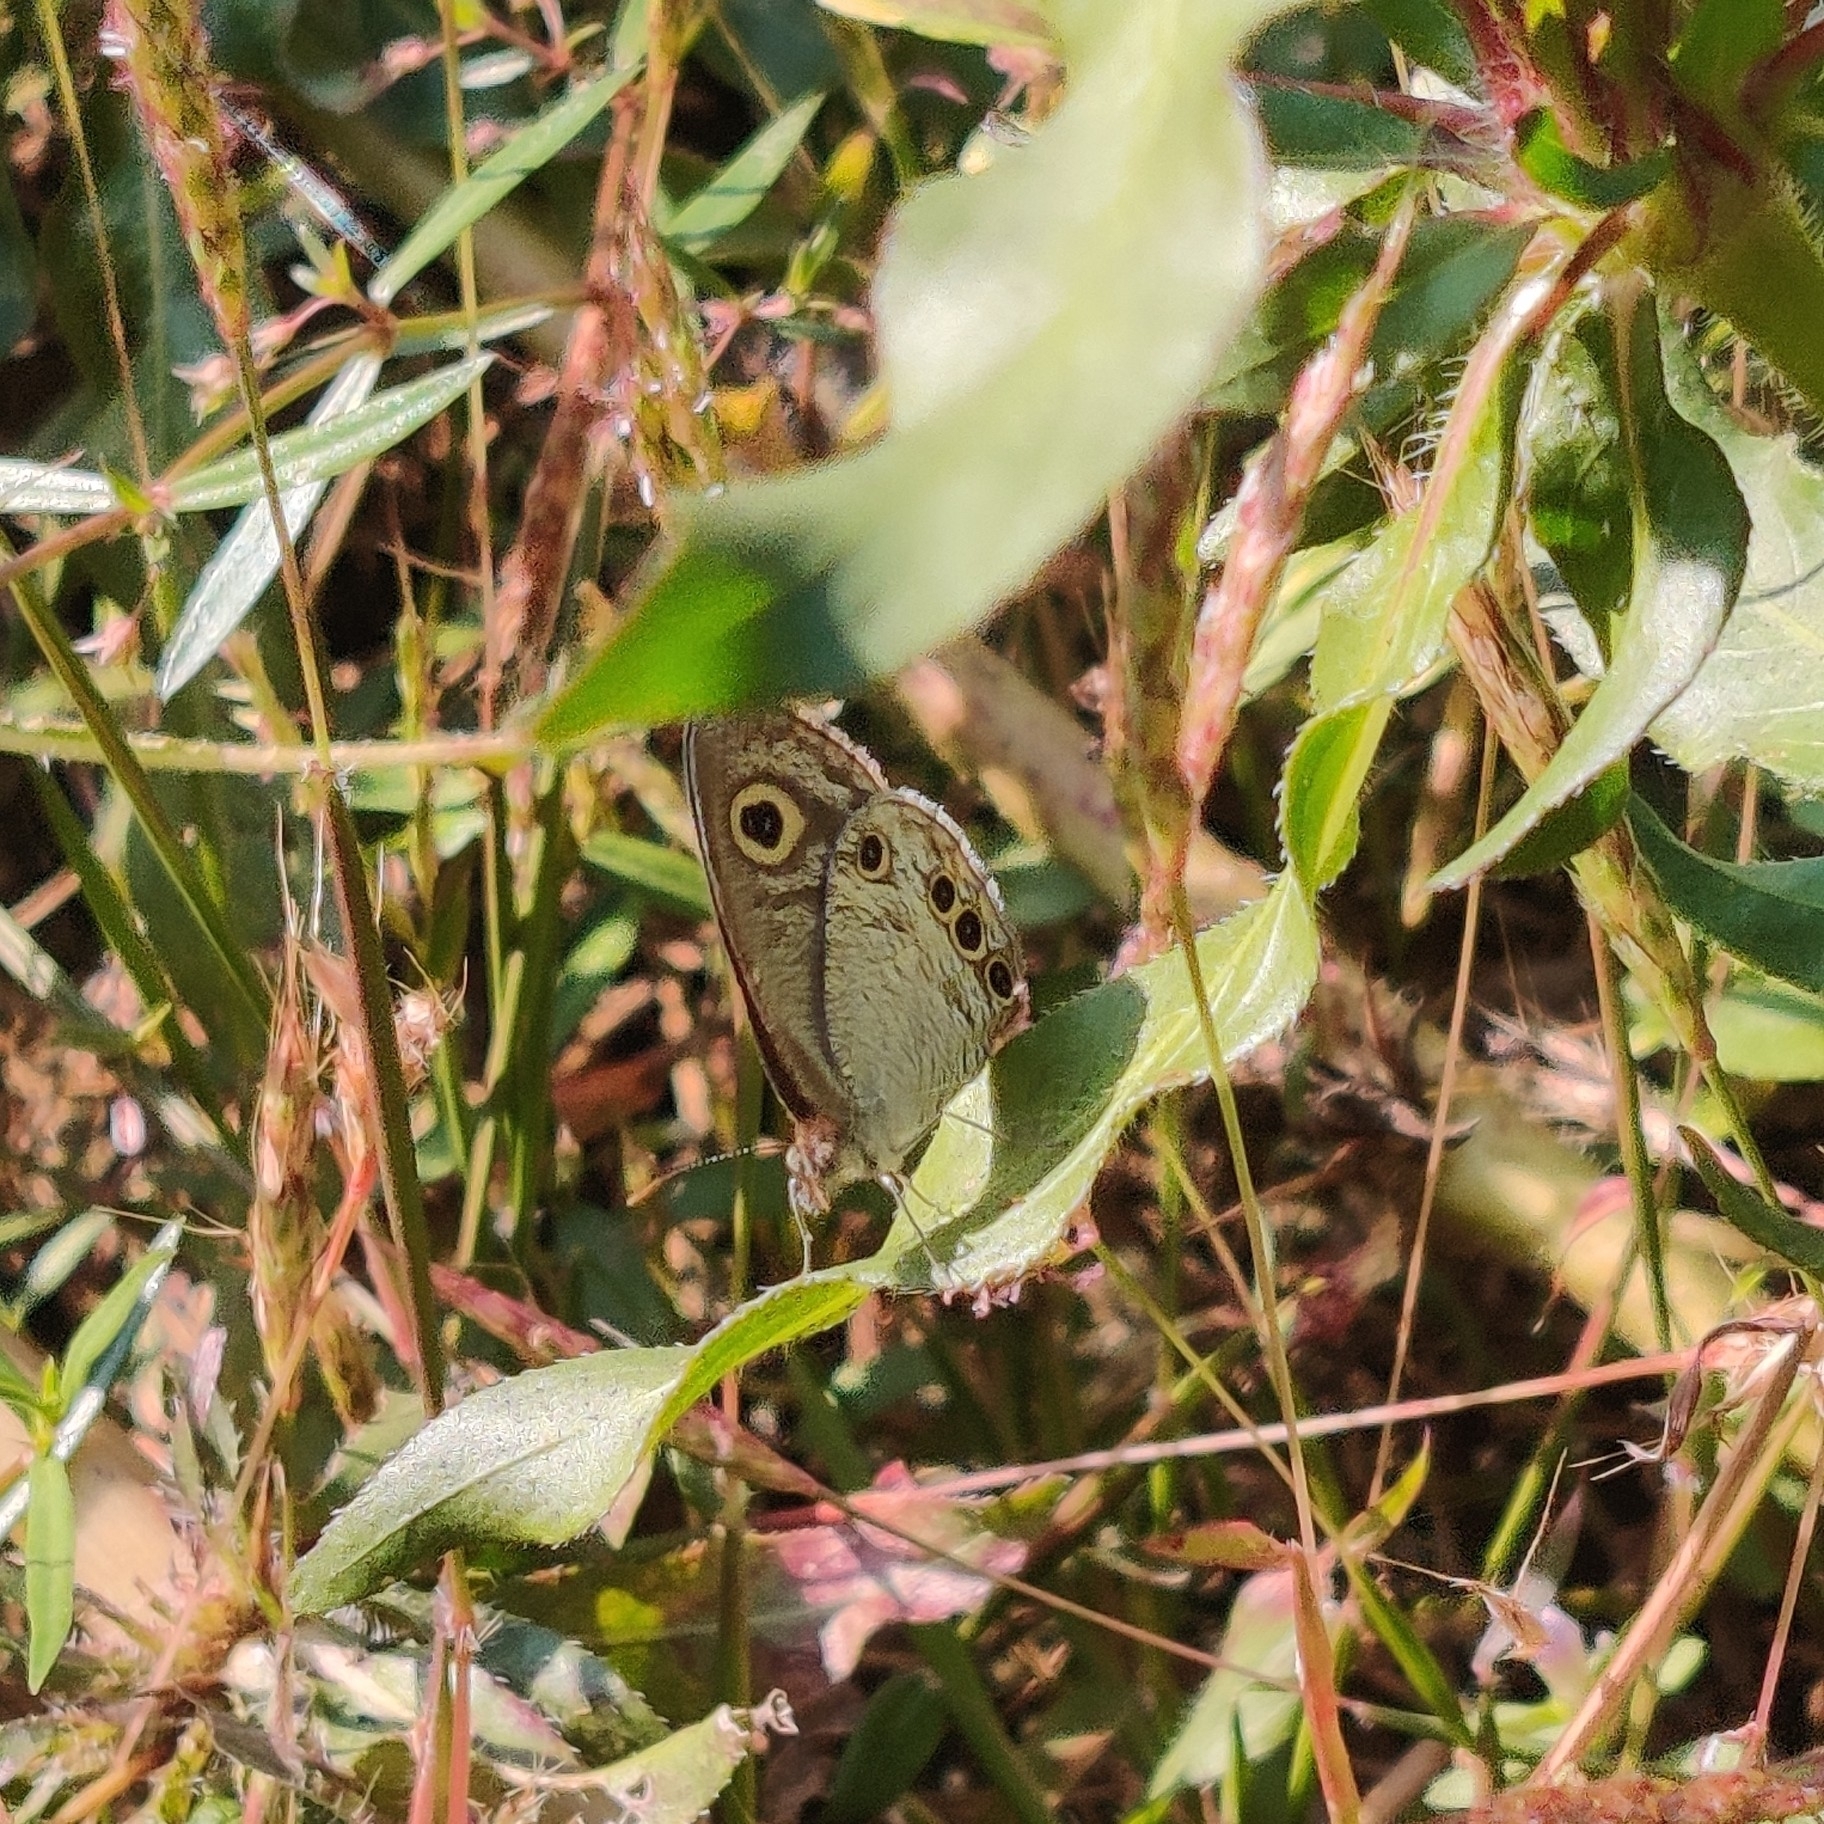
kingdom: Animalia
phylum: Arthropoda
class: Insecta
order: Lepidoptera
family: Nymphalidae
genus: Ypthima
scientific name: Ypthima huebneri
